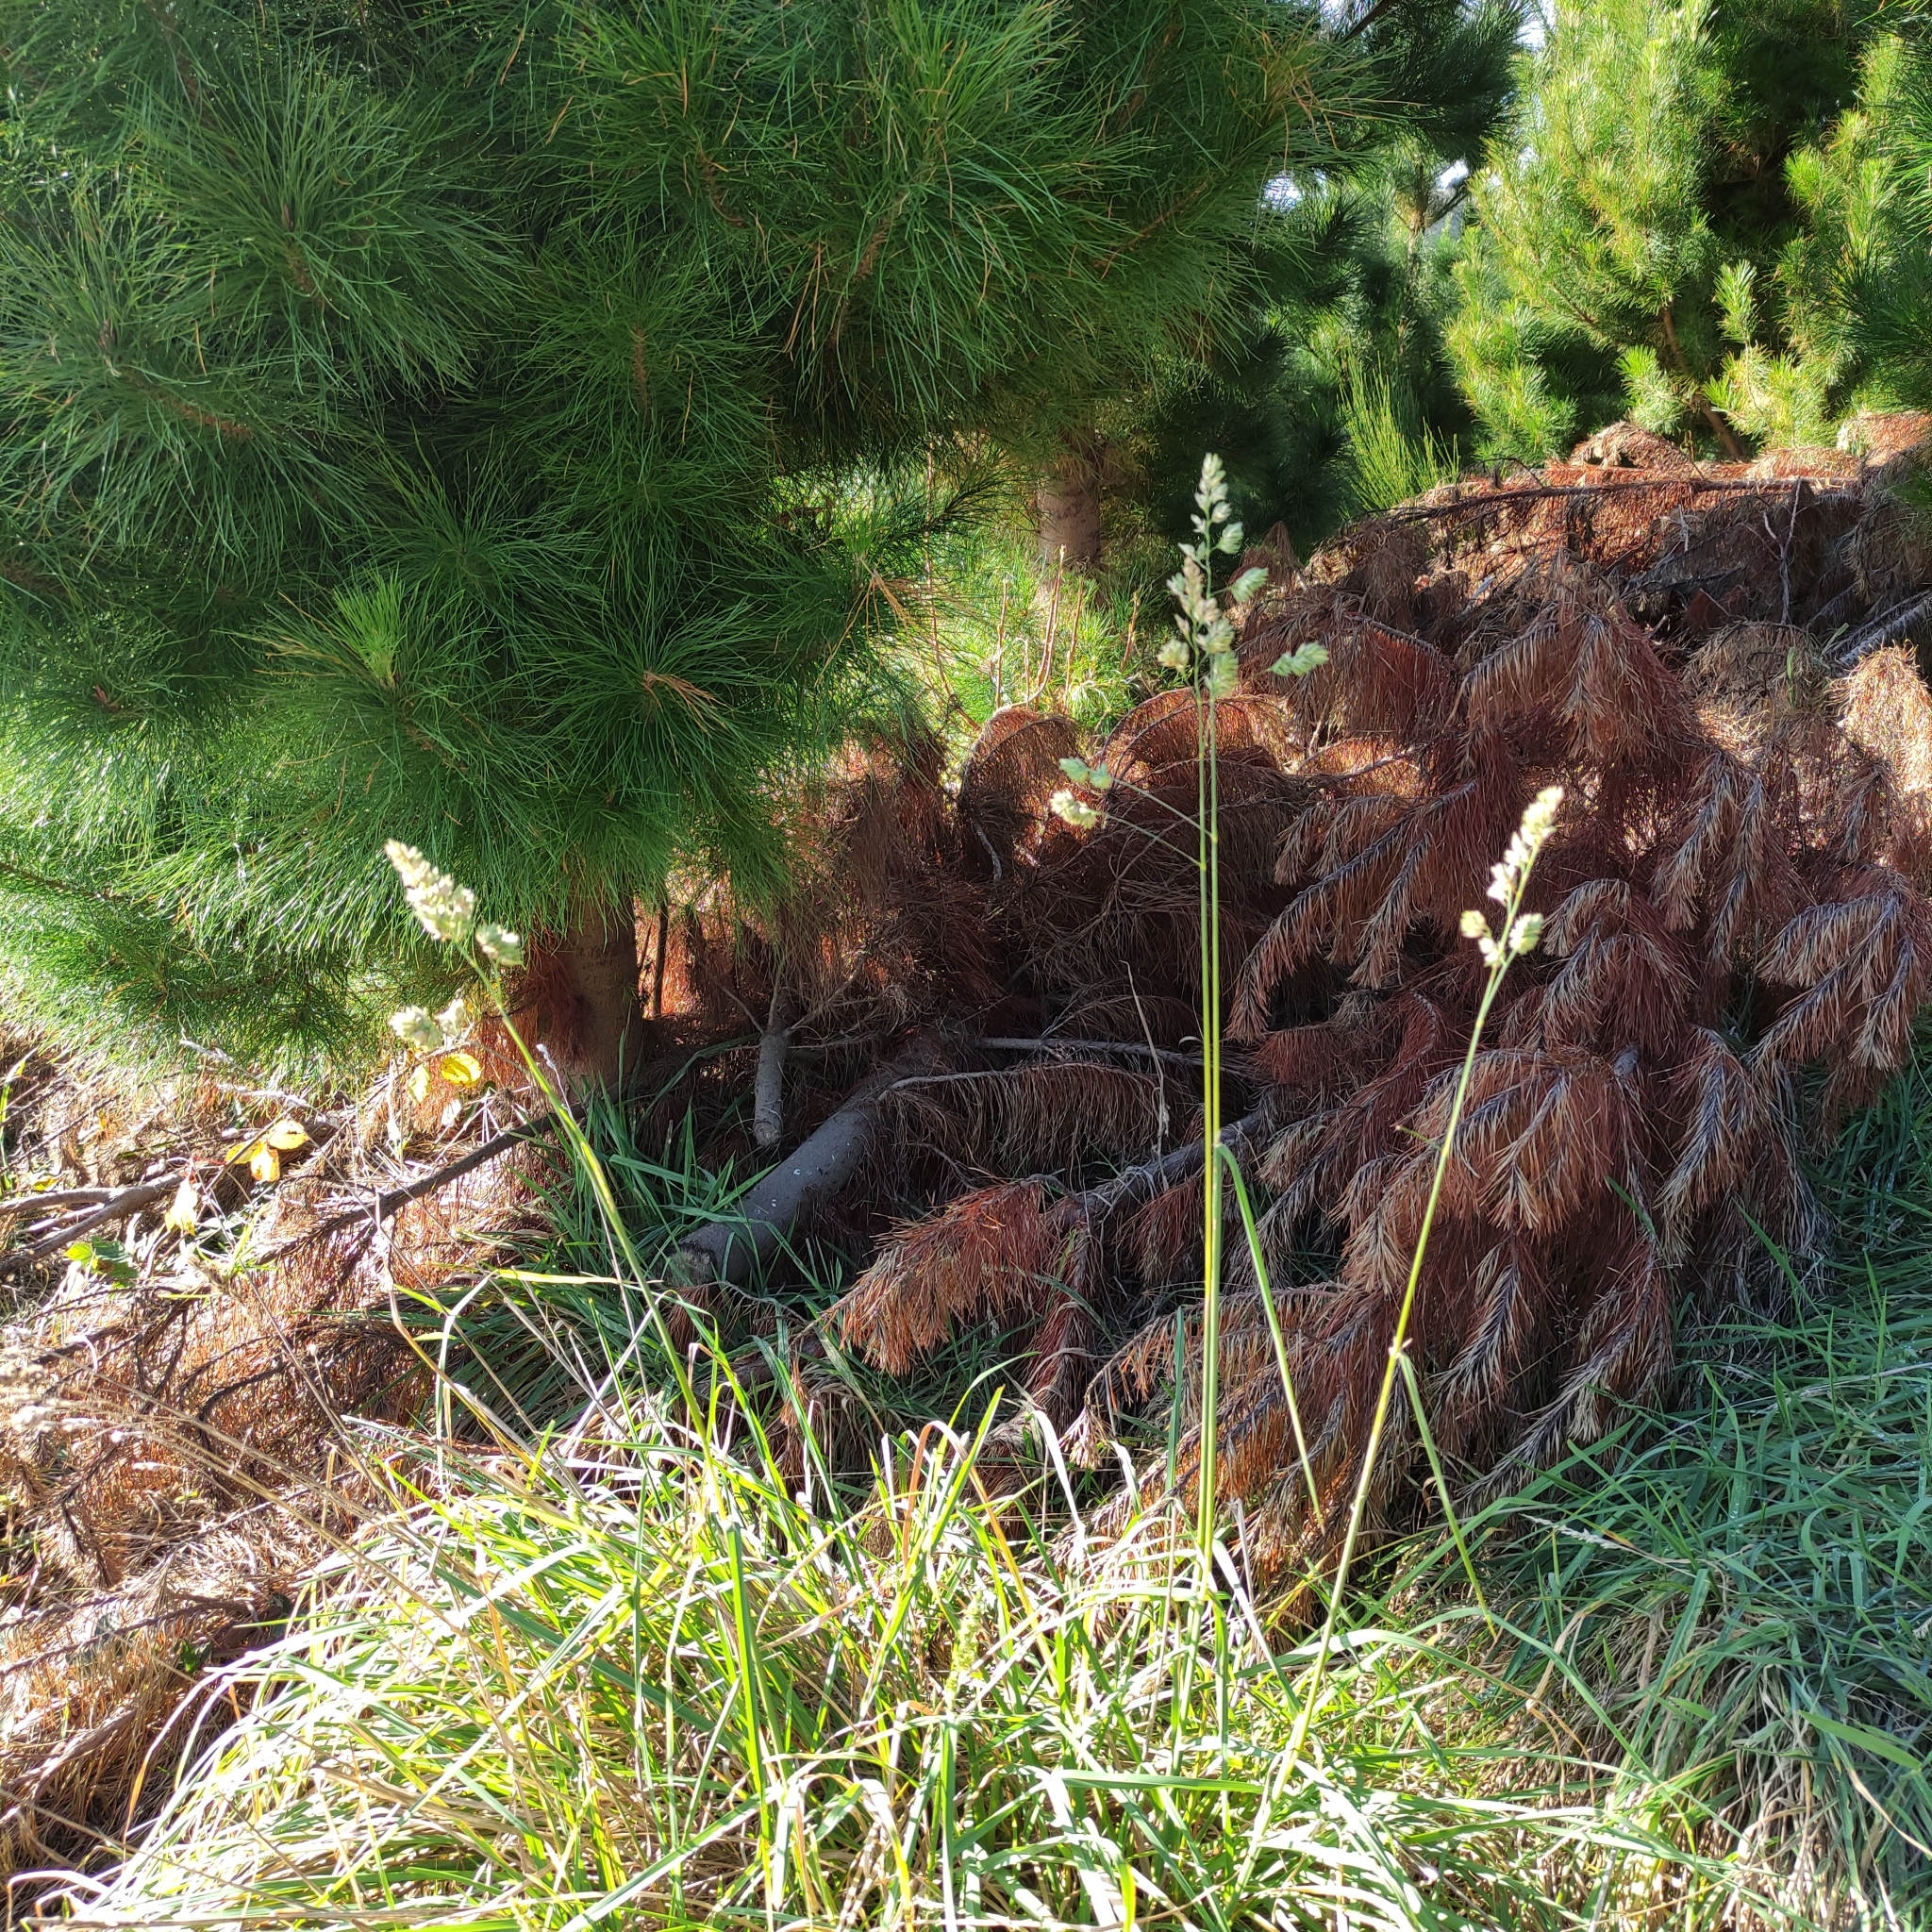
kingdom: Plantae
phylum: Tracheophyta
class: Liliopsida
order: Poales
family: Poaceae
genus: Dactylis
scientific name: Dactylis glomerata
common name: Orchardgrass
